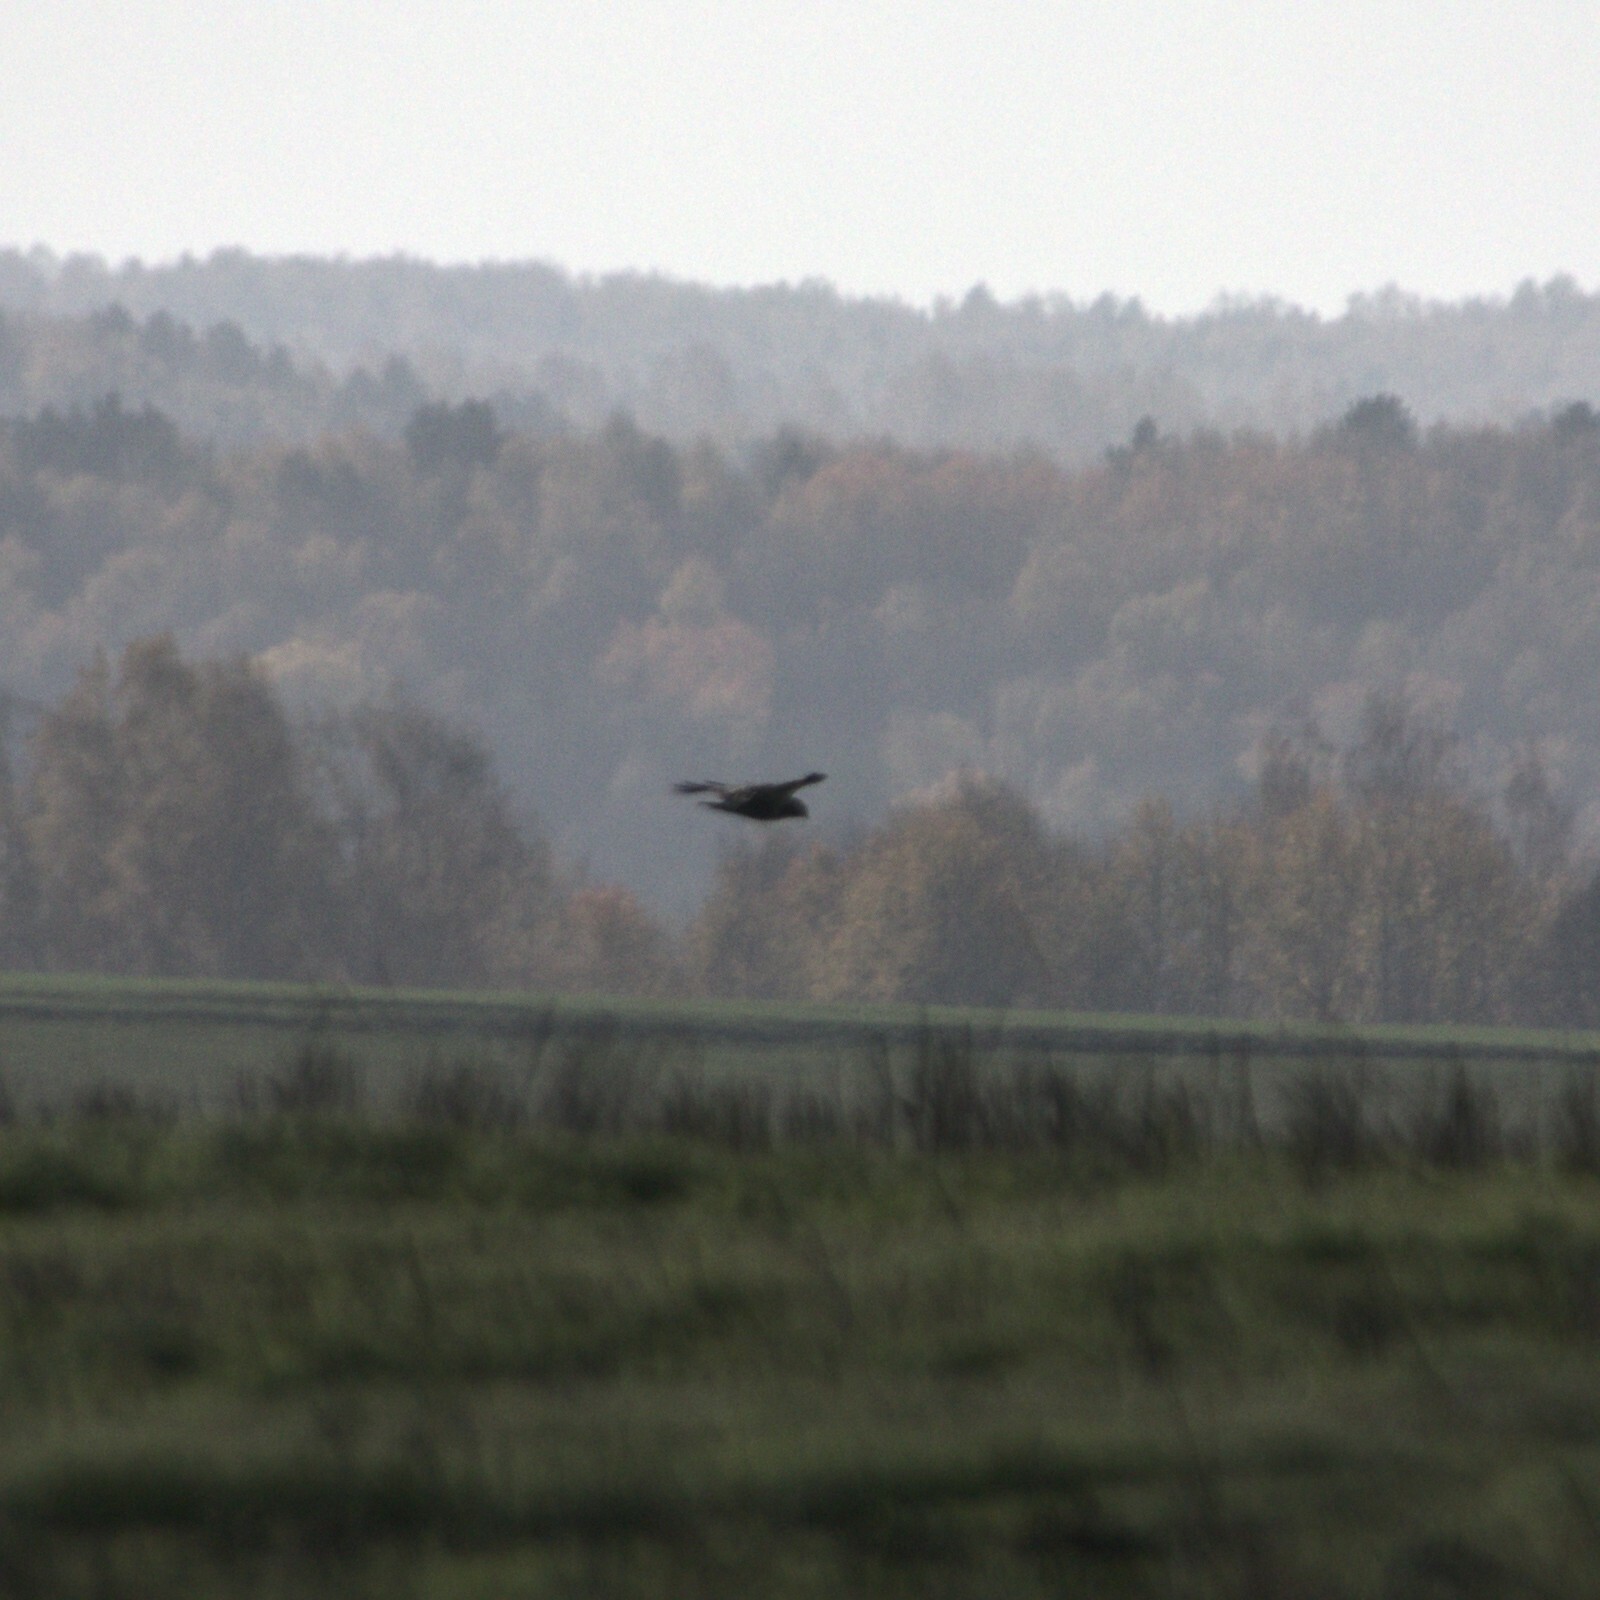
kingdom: Animalia
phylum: Chordata
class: Aves
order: Accipitriformes
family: Accipitridae
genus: Buteo
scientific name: Buteo lagopus
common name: Rough-legged buzzard
